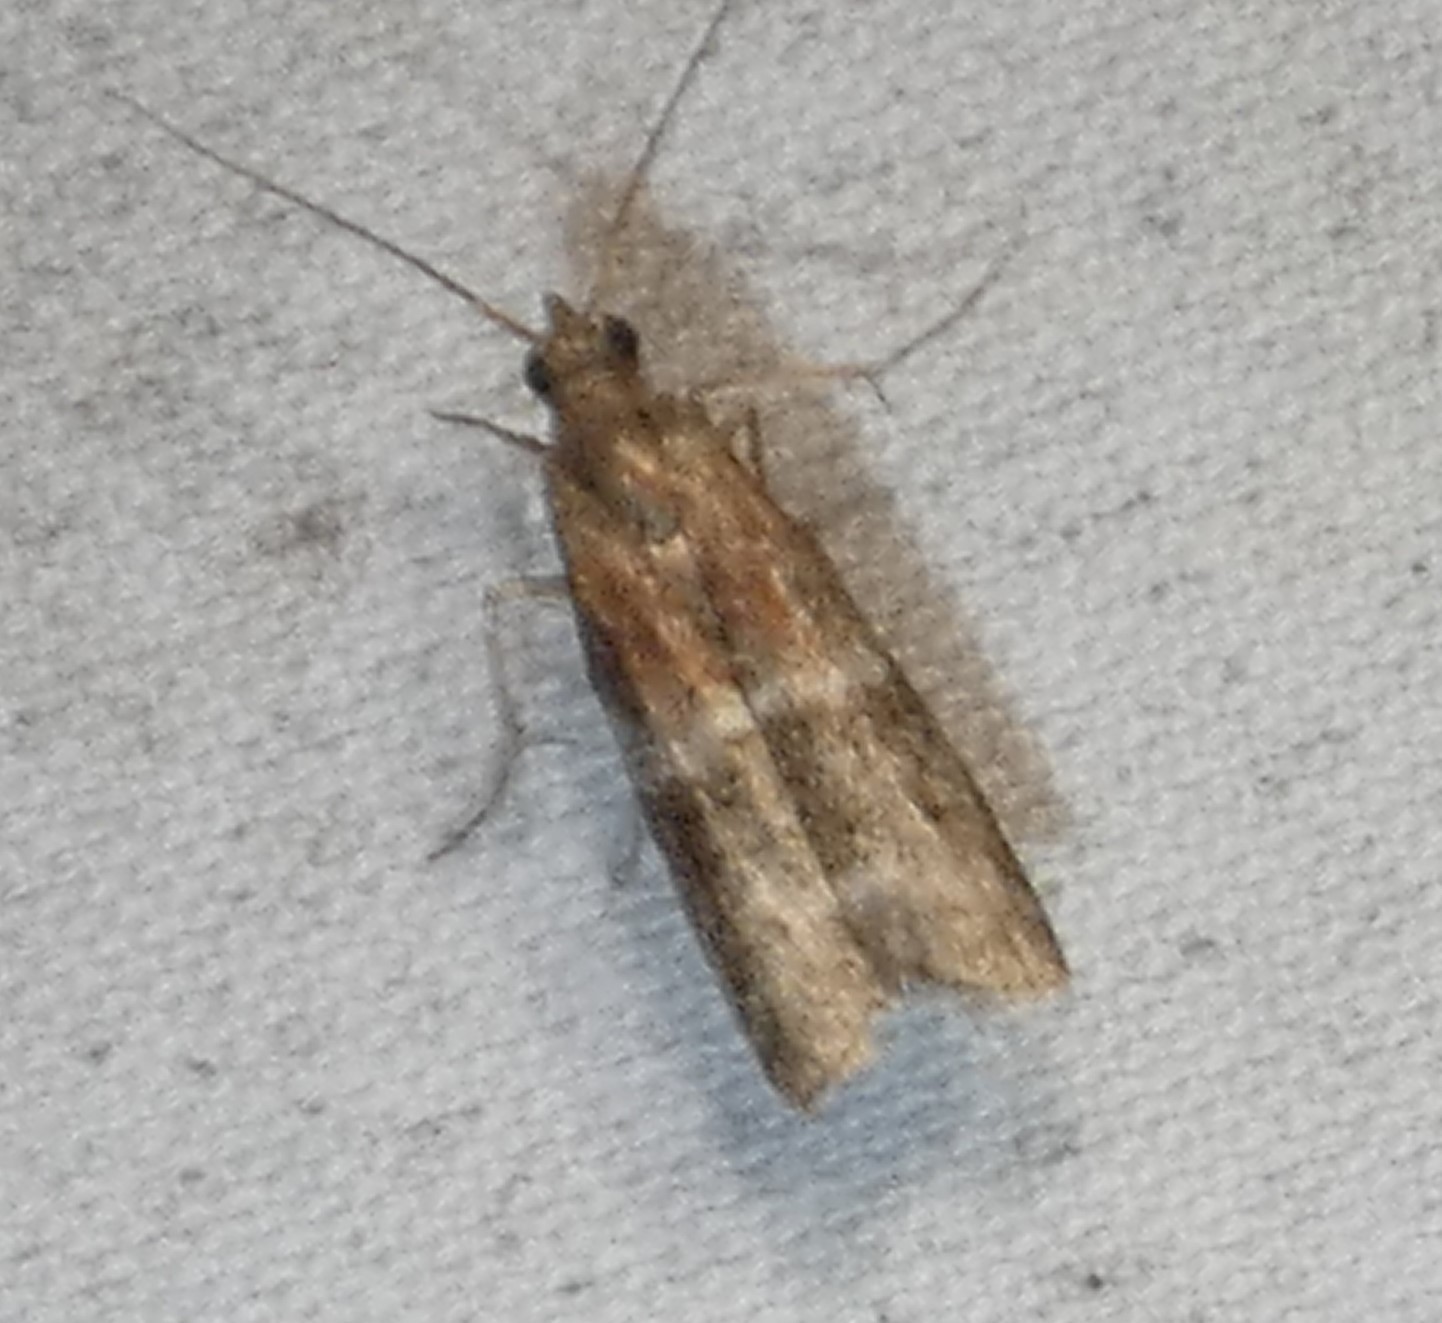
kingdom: Animalia
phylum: Arthropoda
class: Insecta
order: Lepidoptera
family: Pyralidae
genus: Moodna
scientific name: Moodna ostrinella
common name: Darker moodna moth
